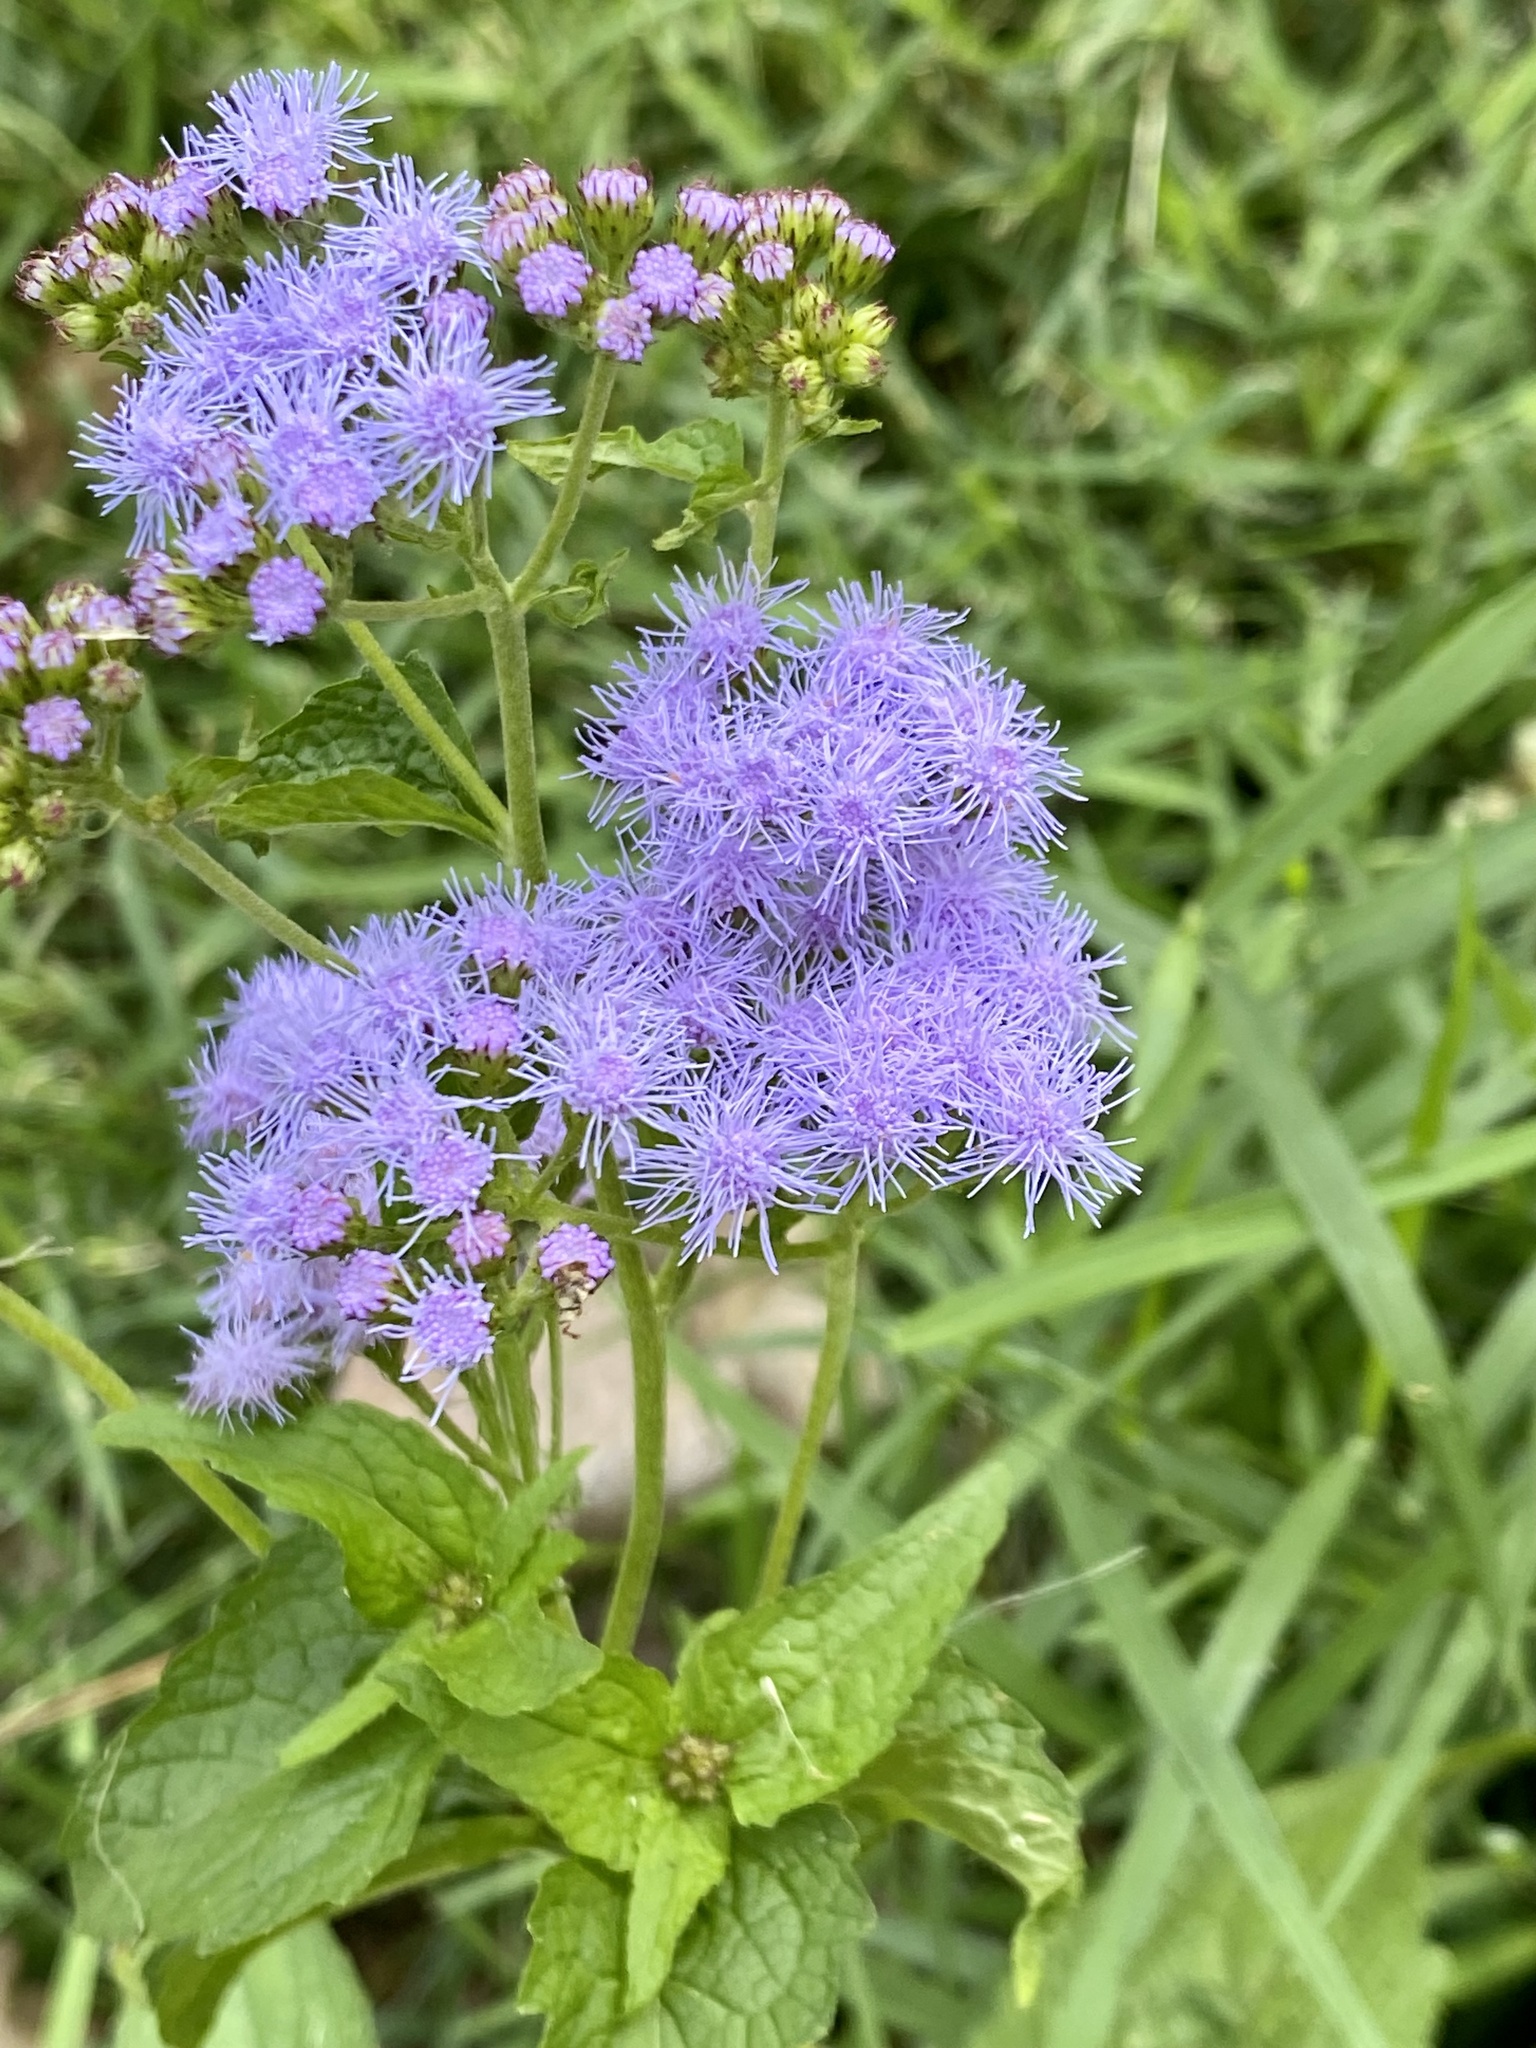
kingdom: Plantae
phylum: Tracheophyta
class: Magnoliopsida
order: Asterales
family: Asteraceae
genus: Conoclinium
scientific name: Conoclinium coelestinum
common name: Blue mistflower
